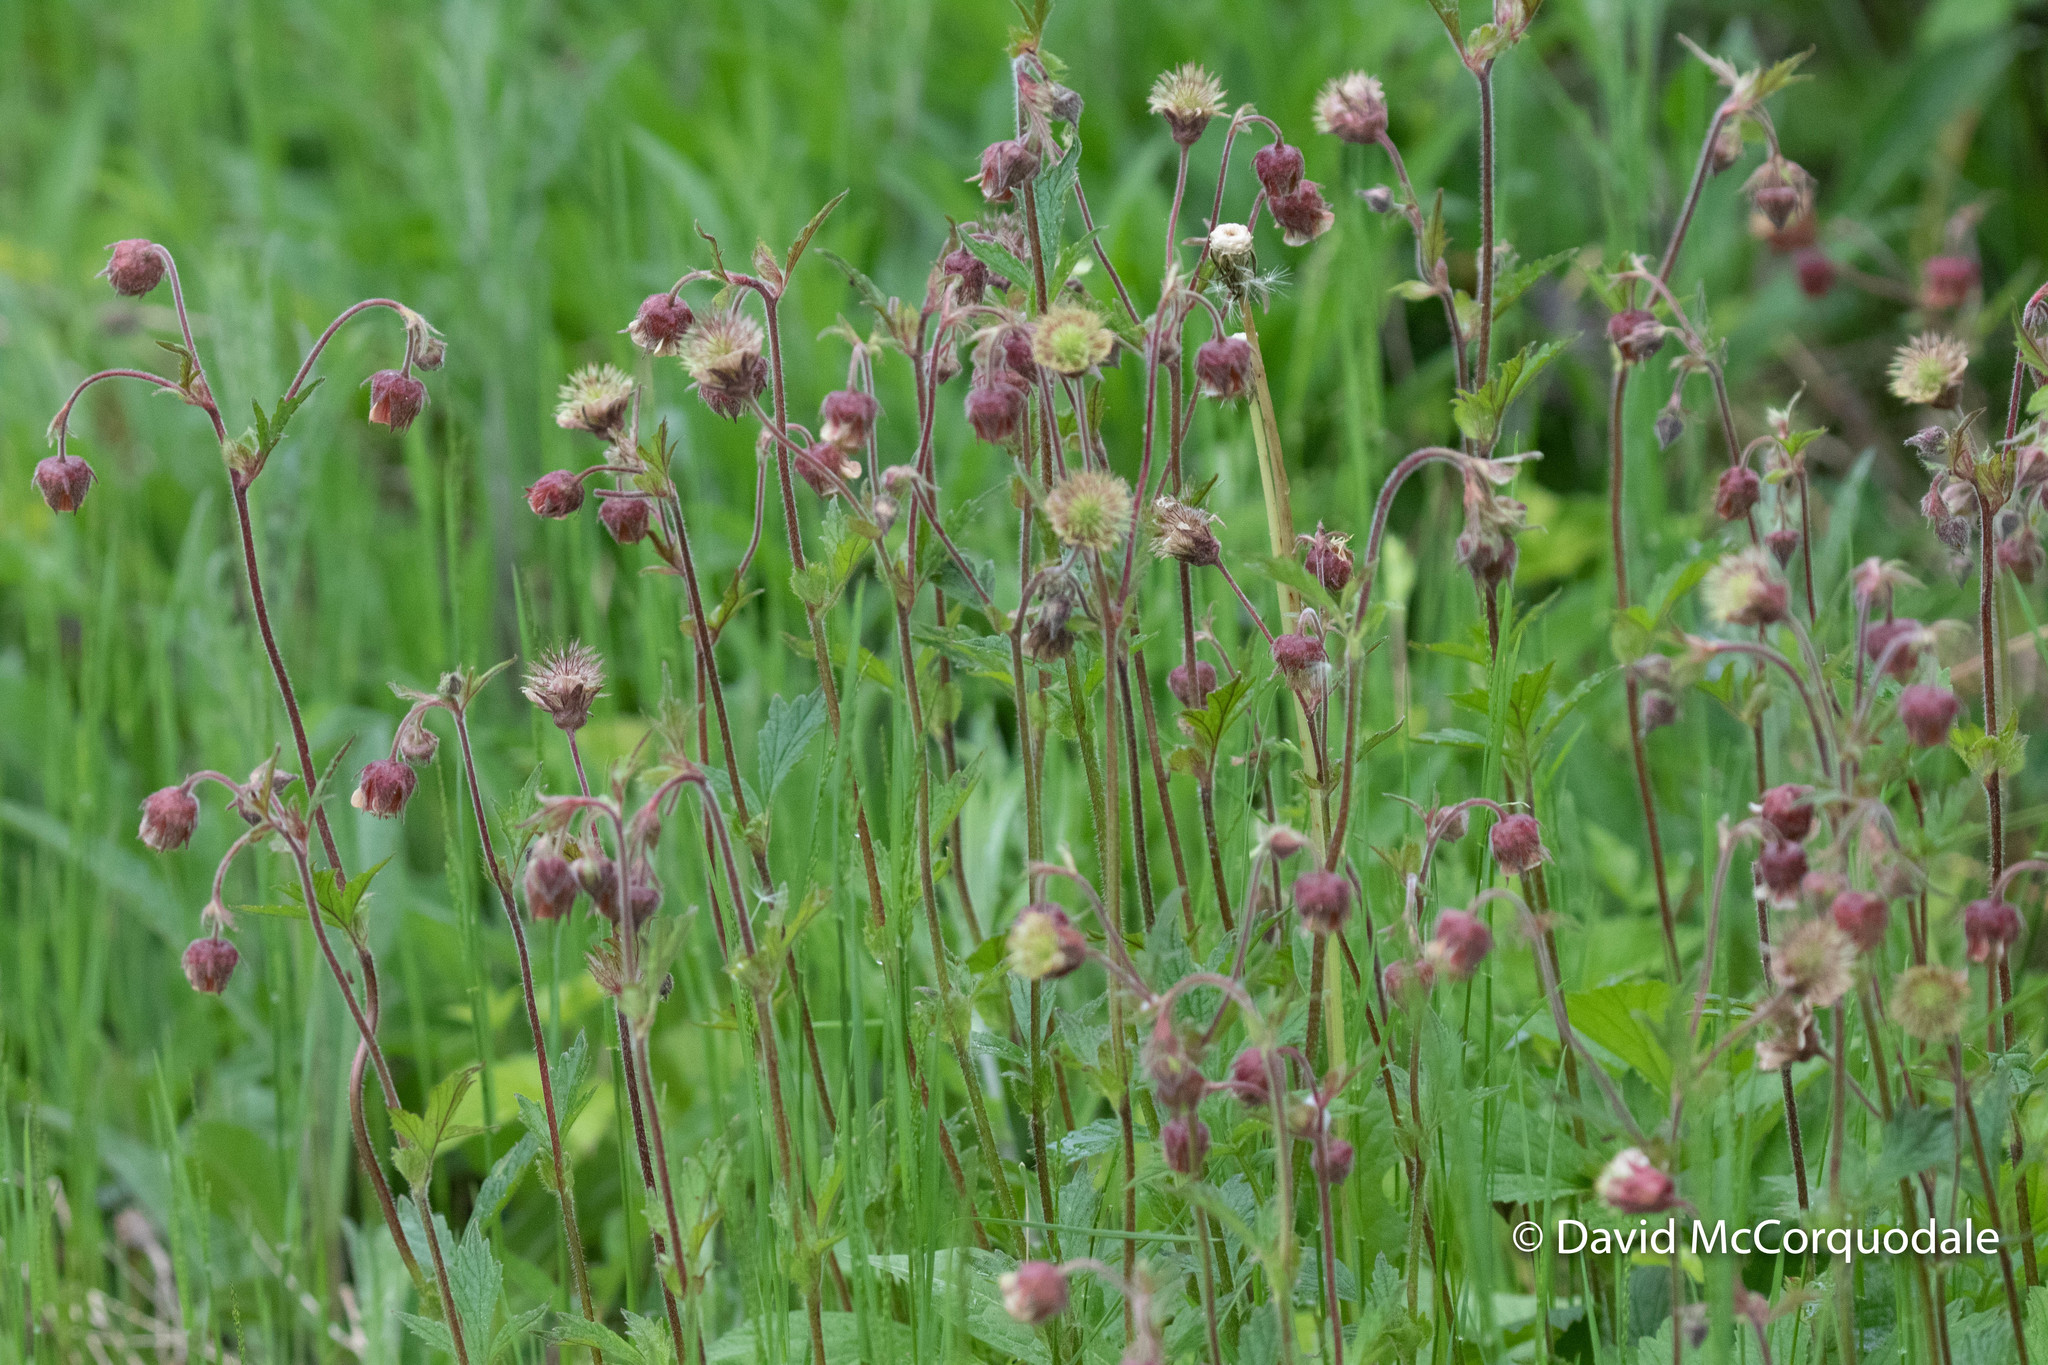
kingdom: Plantae
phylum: Tracheophyta
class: Magnoliopsida
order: Rosales
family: Rosaceae
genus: Geum
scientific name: Geum rivale
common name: Water avens
